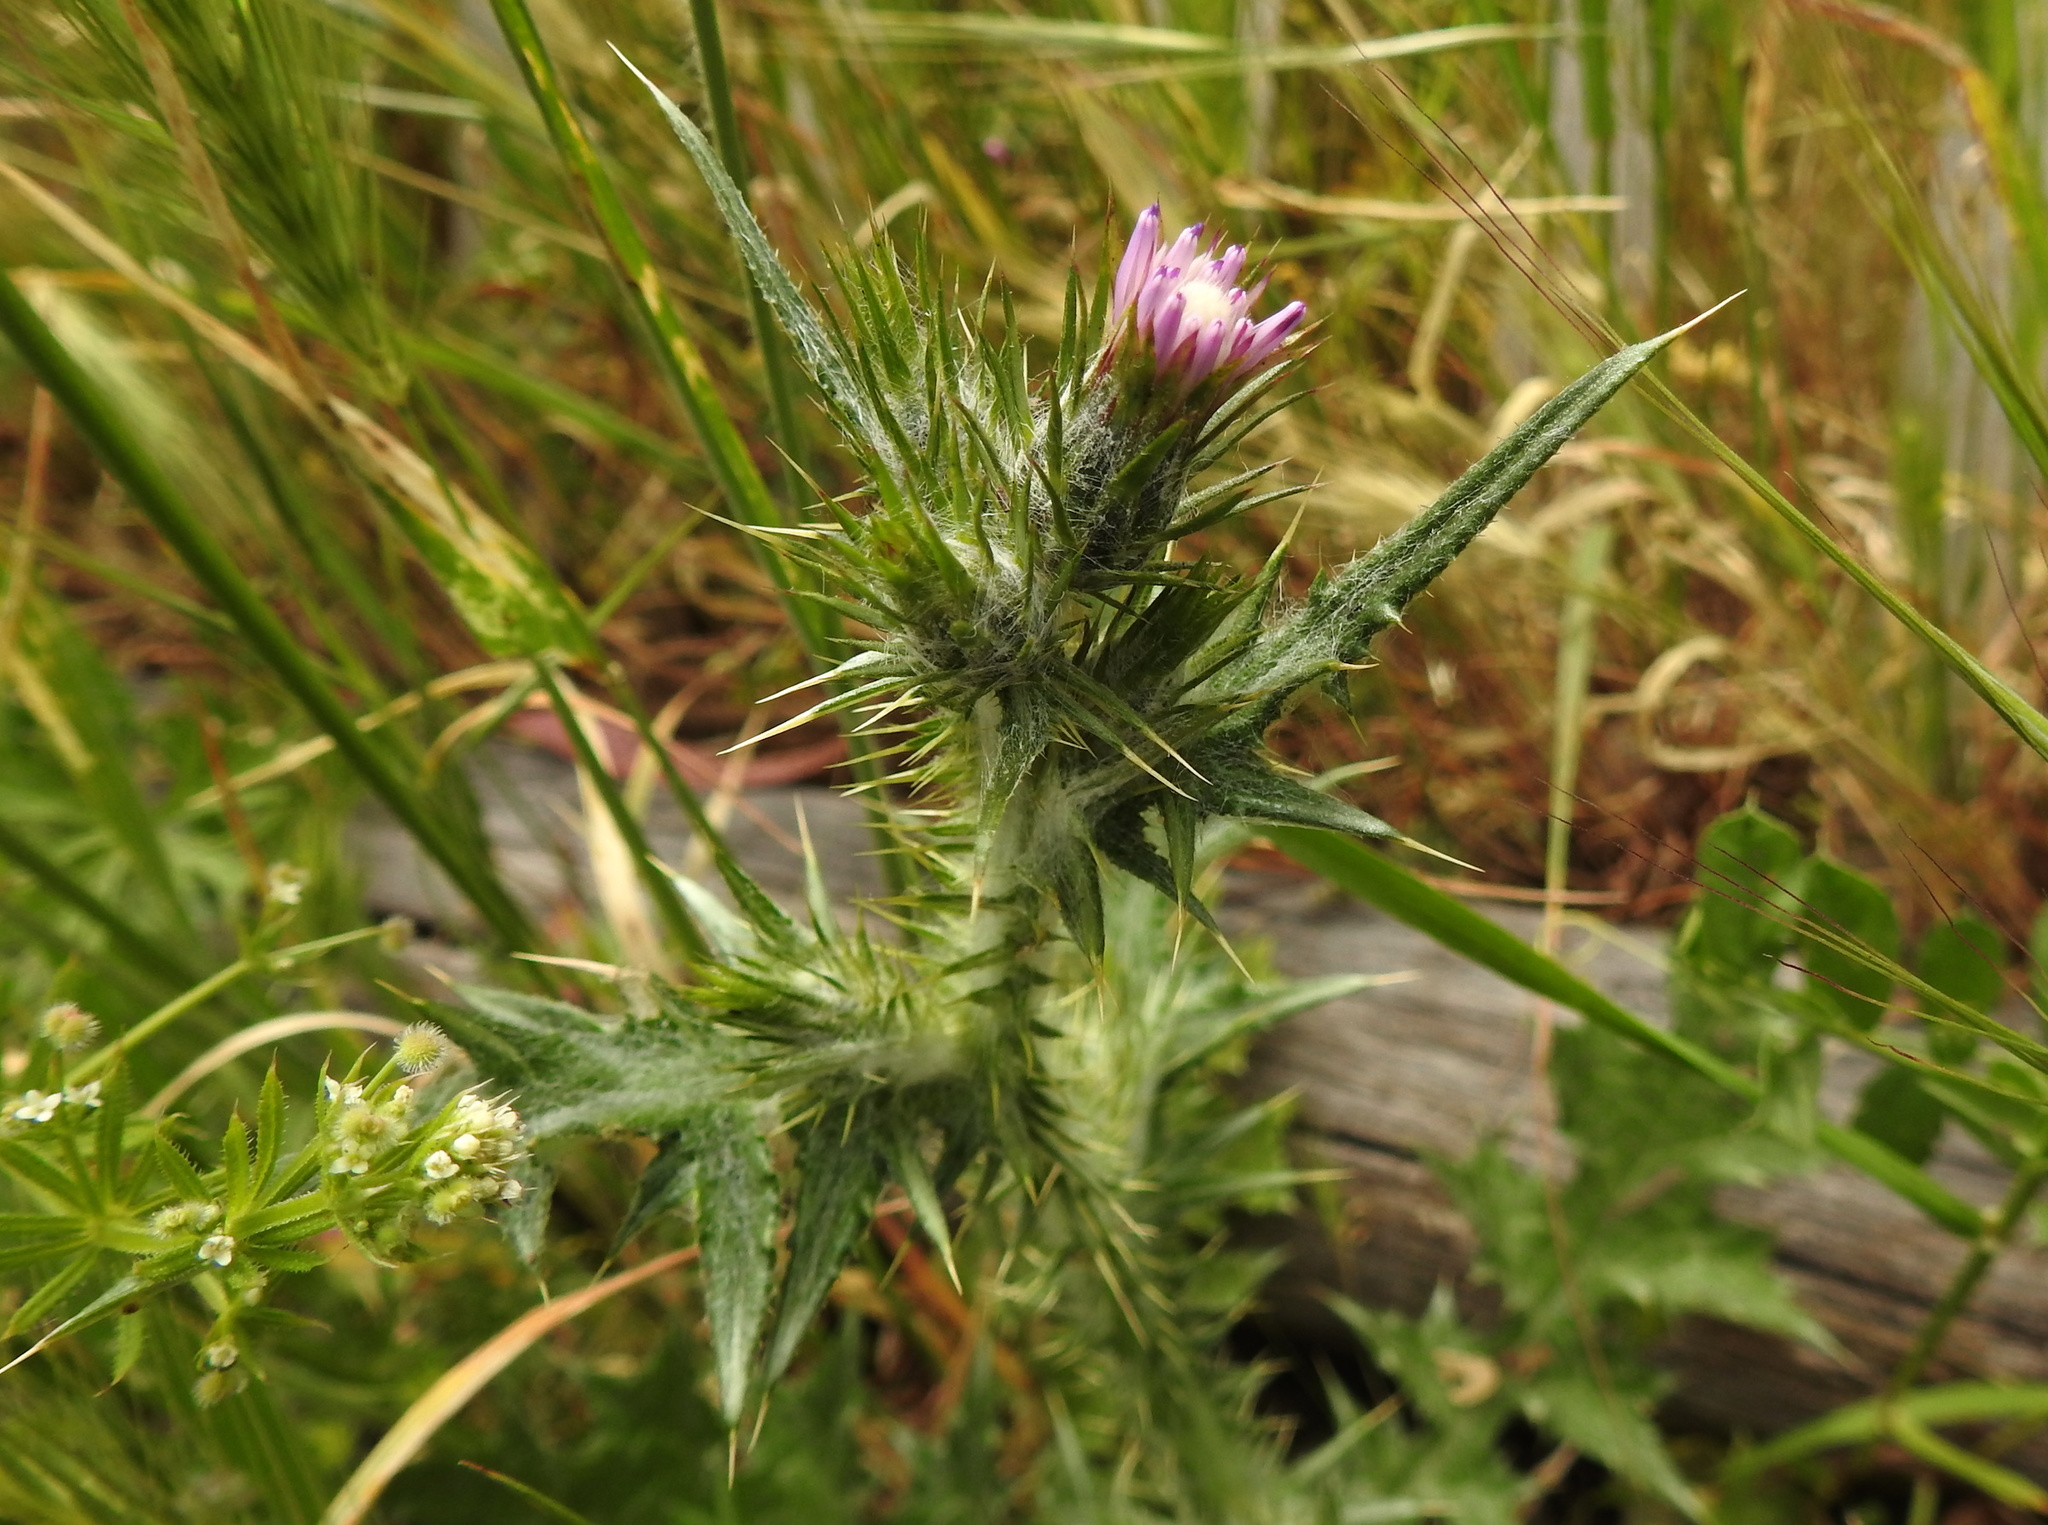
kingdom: Plantae
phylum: Tracheophyta
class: Magnoliopsida
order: Asterales
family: Asteraceae
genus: Carduus
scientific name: Carduus pycnocephalus
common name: Plymouth thistle
